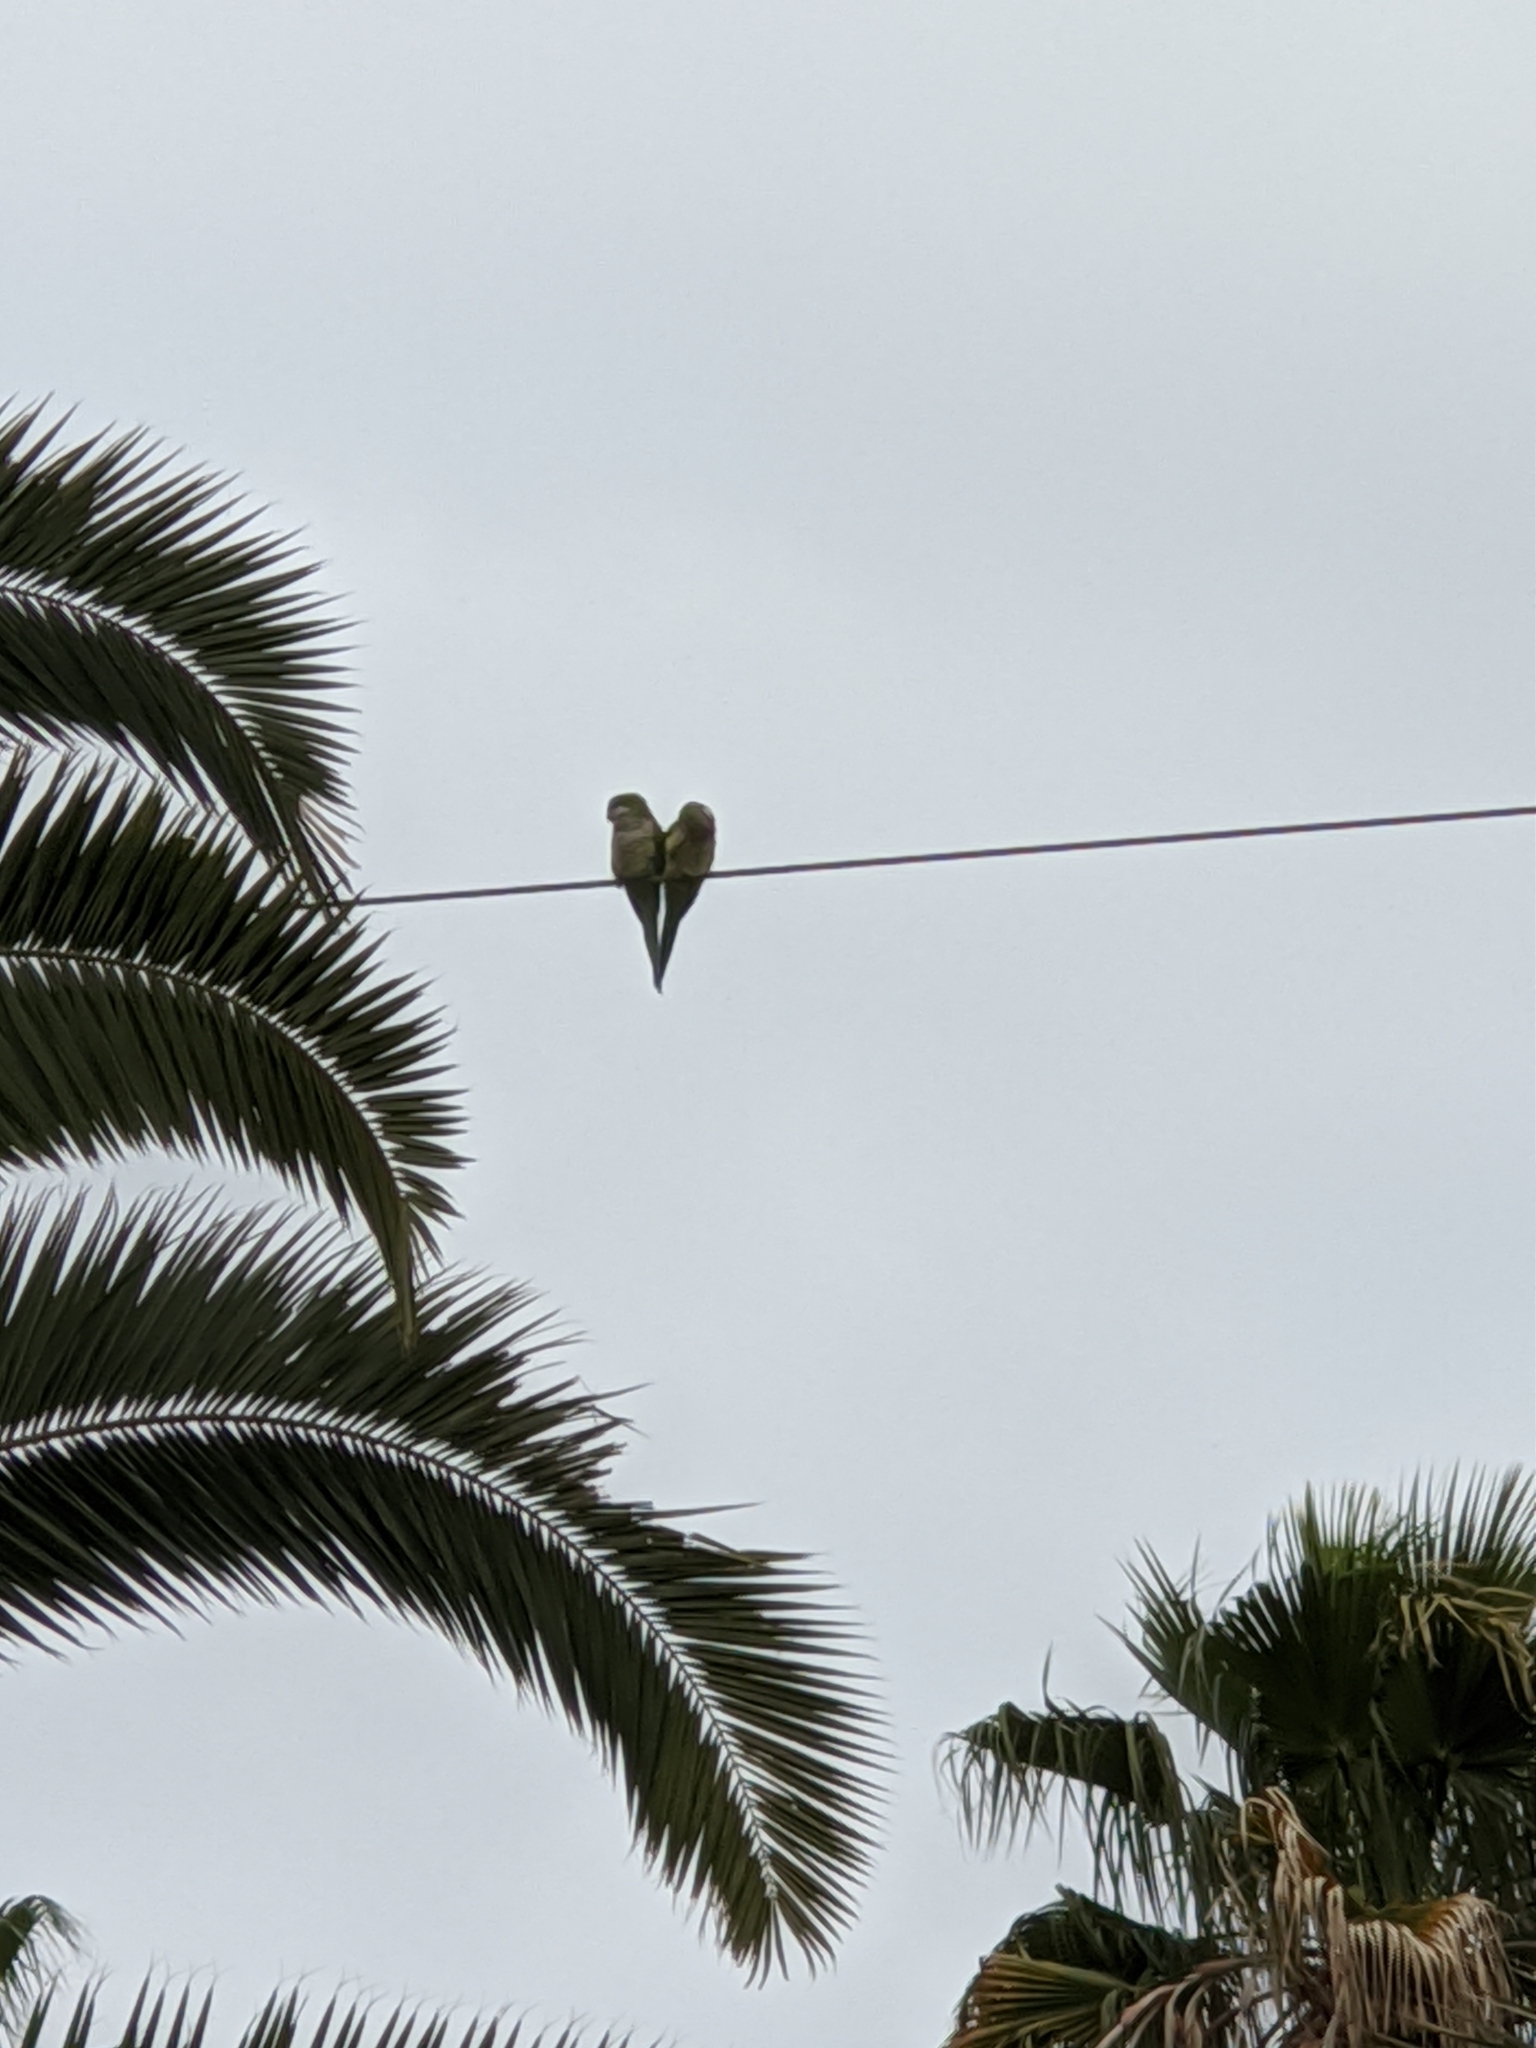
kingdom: Animalia
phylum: Chordata
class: Aves
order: Psittaciformes
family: Psittacidae
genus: Myiopsitta
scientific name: Myiopsitta monachus
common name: Monk parakeet
